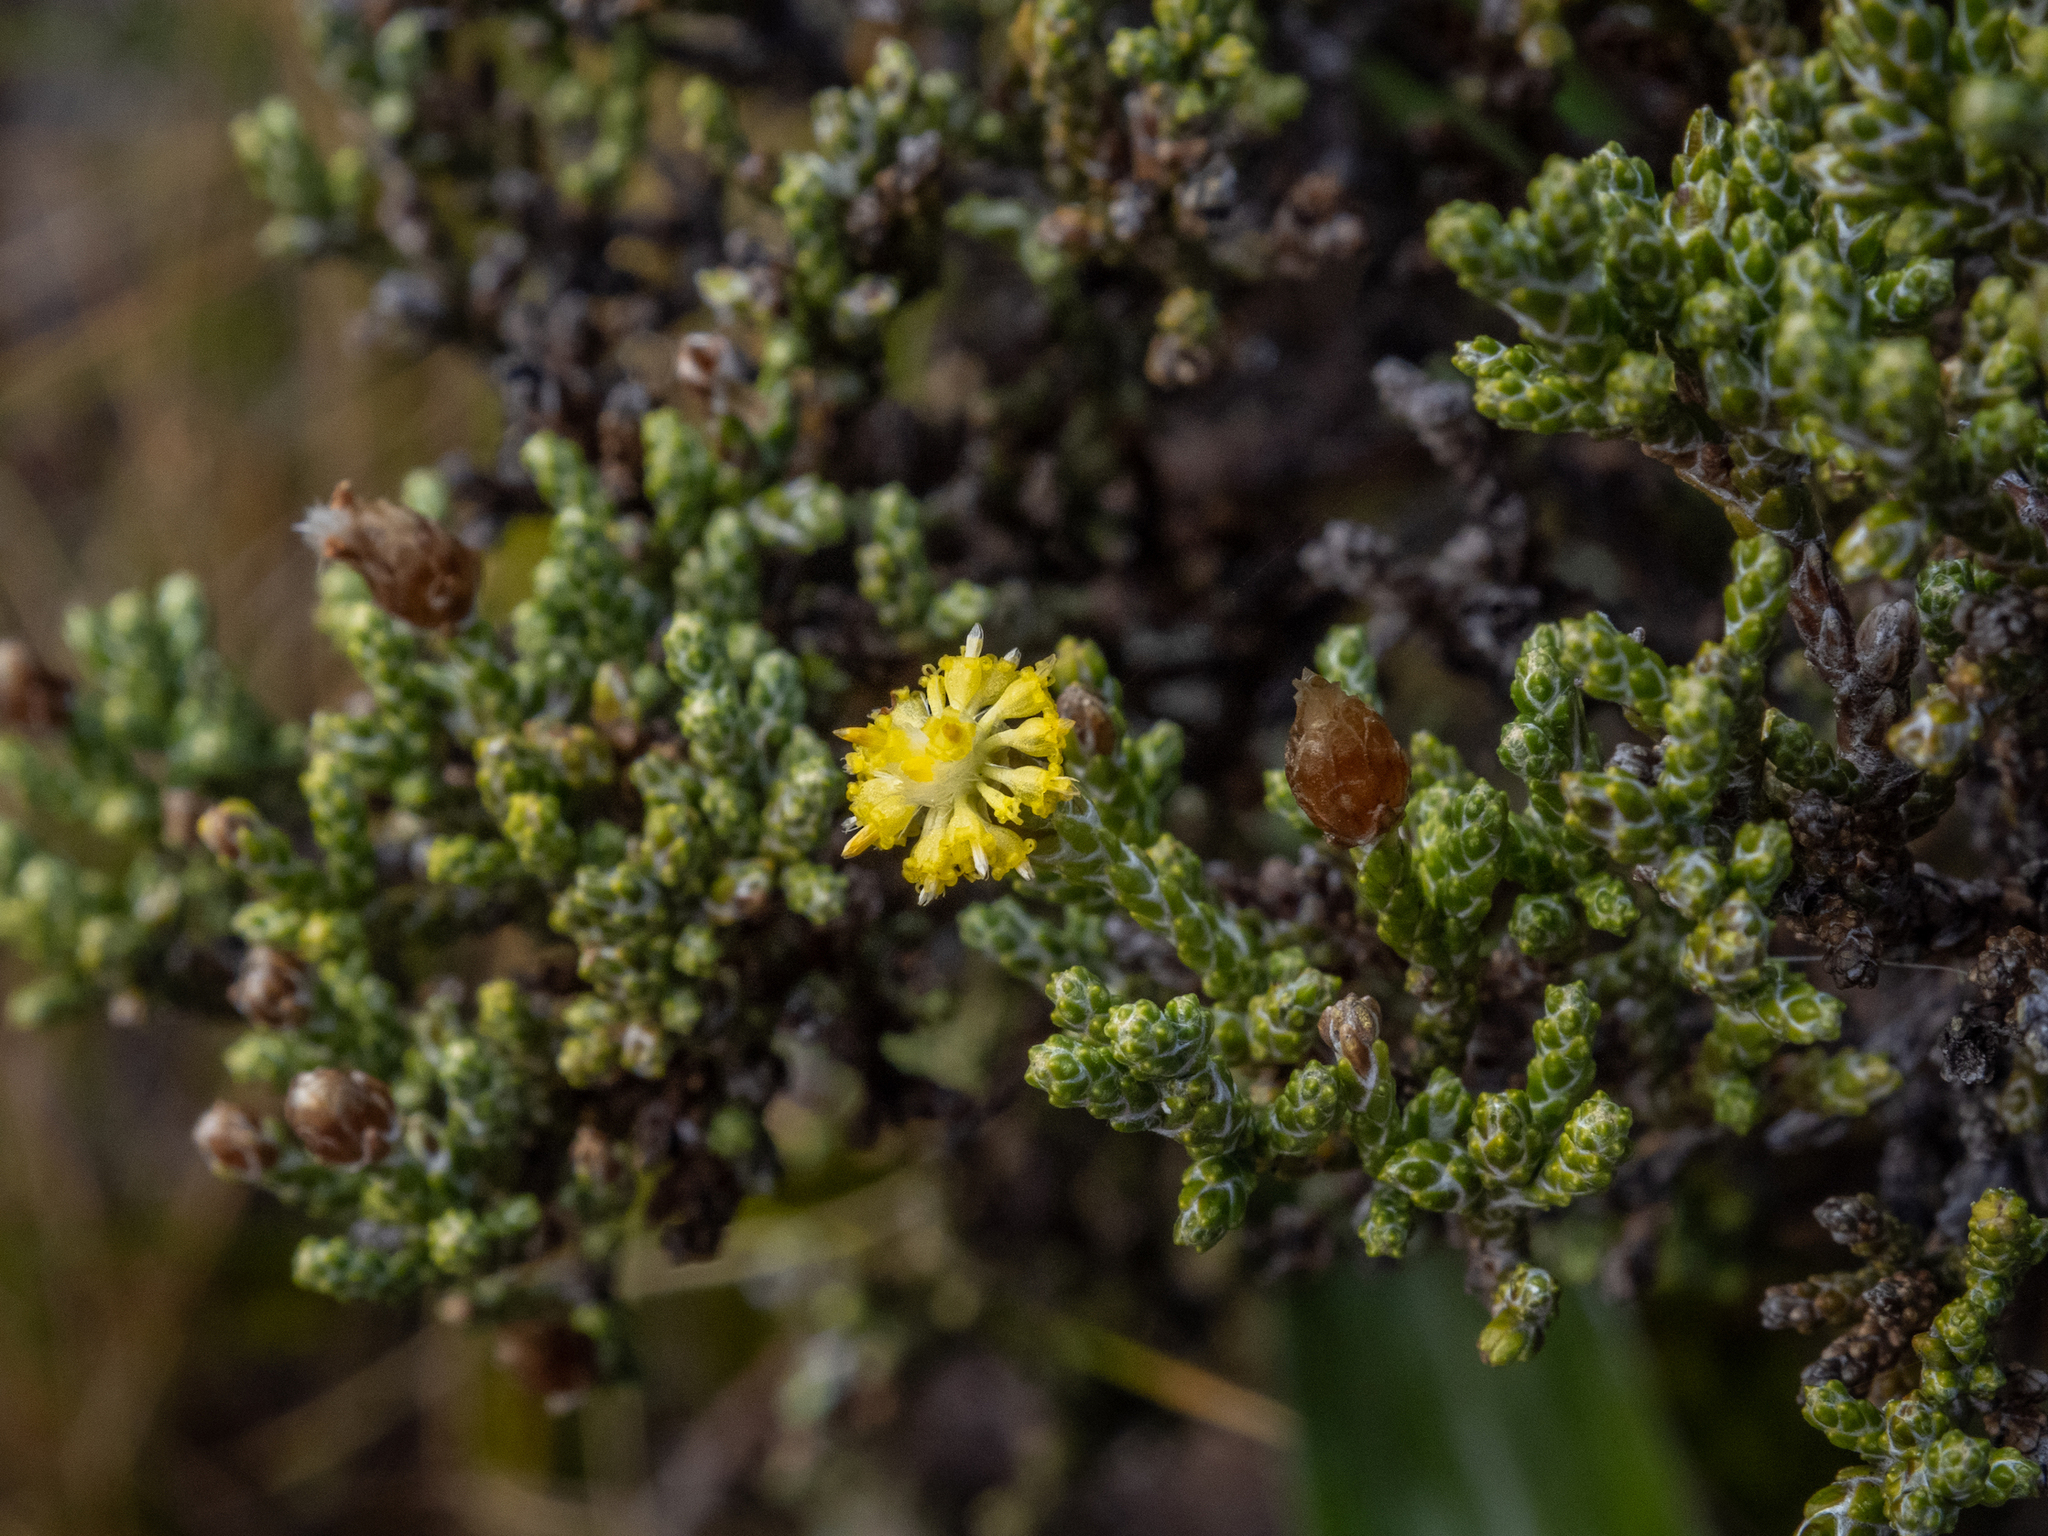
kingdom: Plantae
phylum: Tracheophyta
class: Magnoliopsida
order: Asterales
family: Asteraceae
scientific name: Asteraceae
